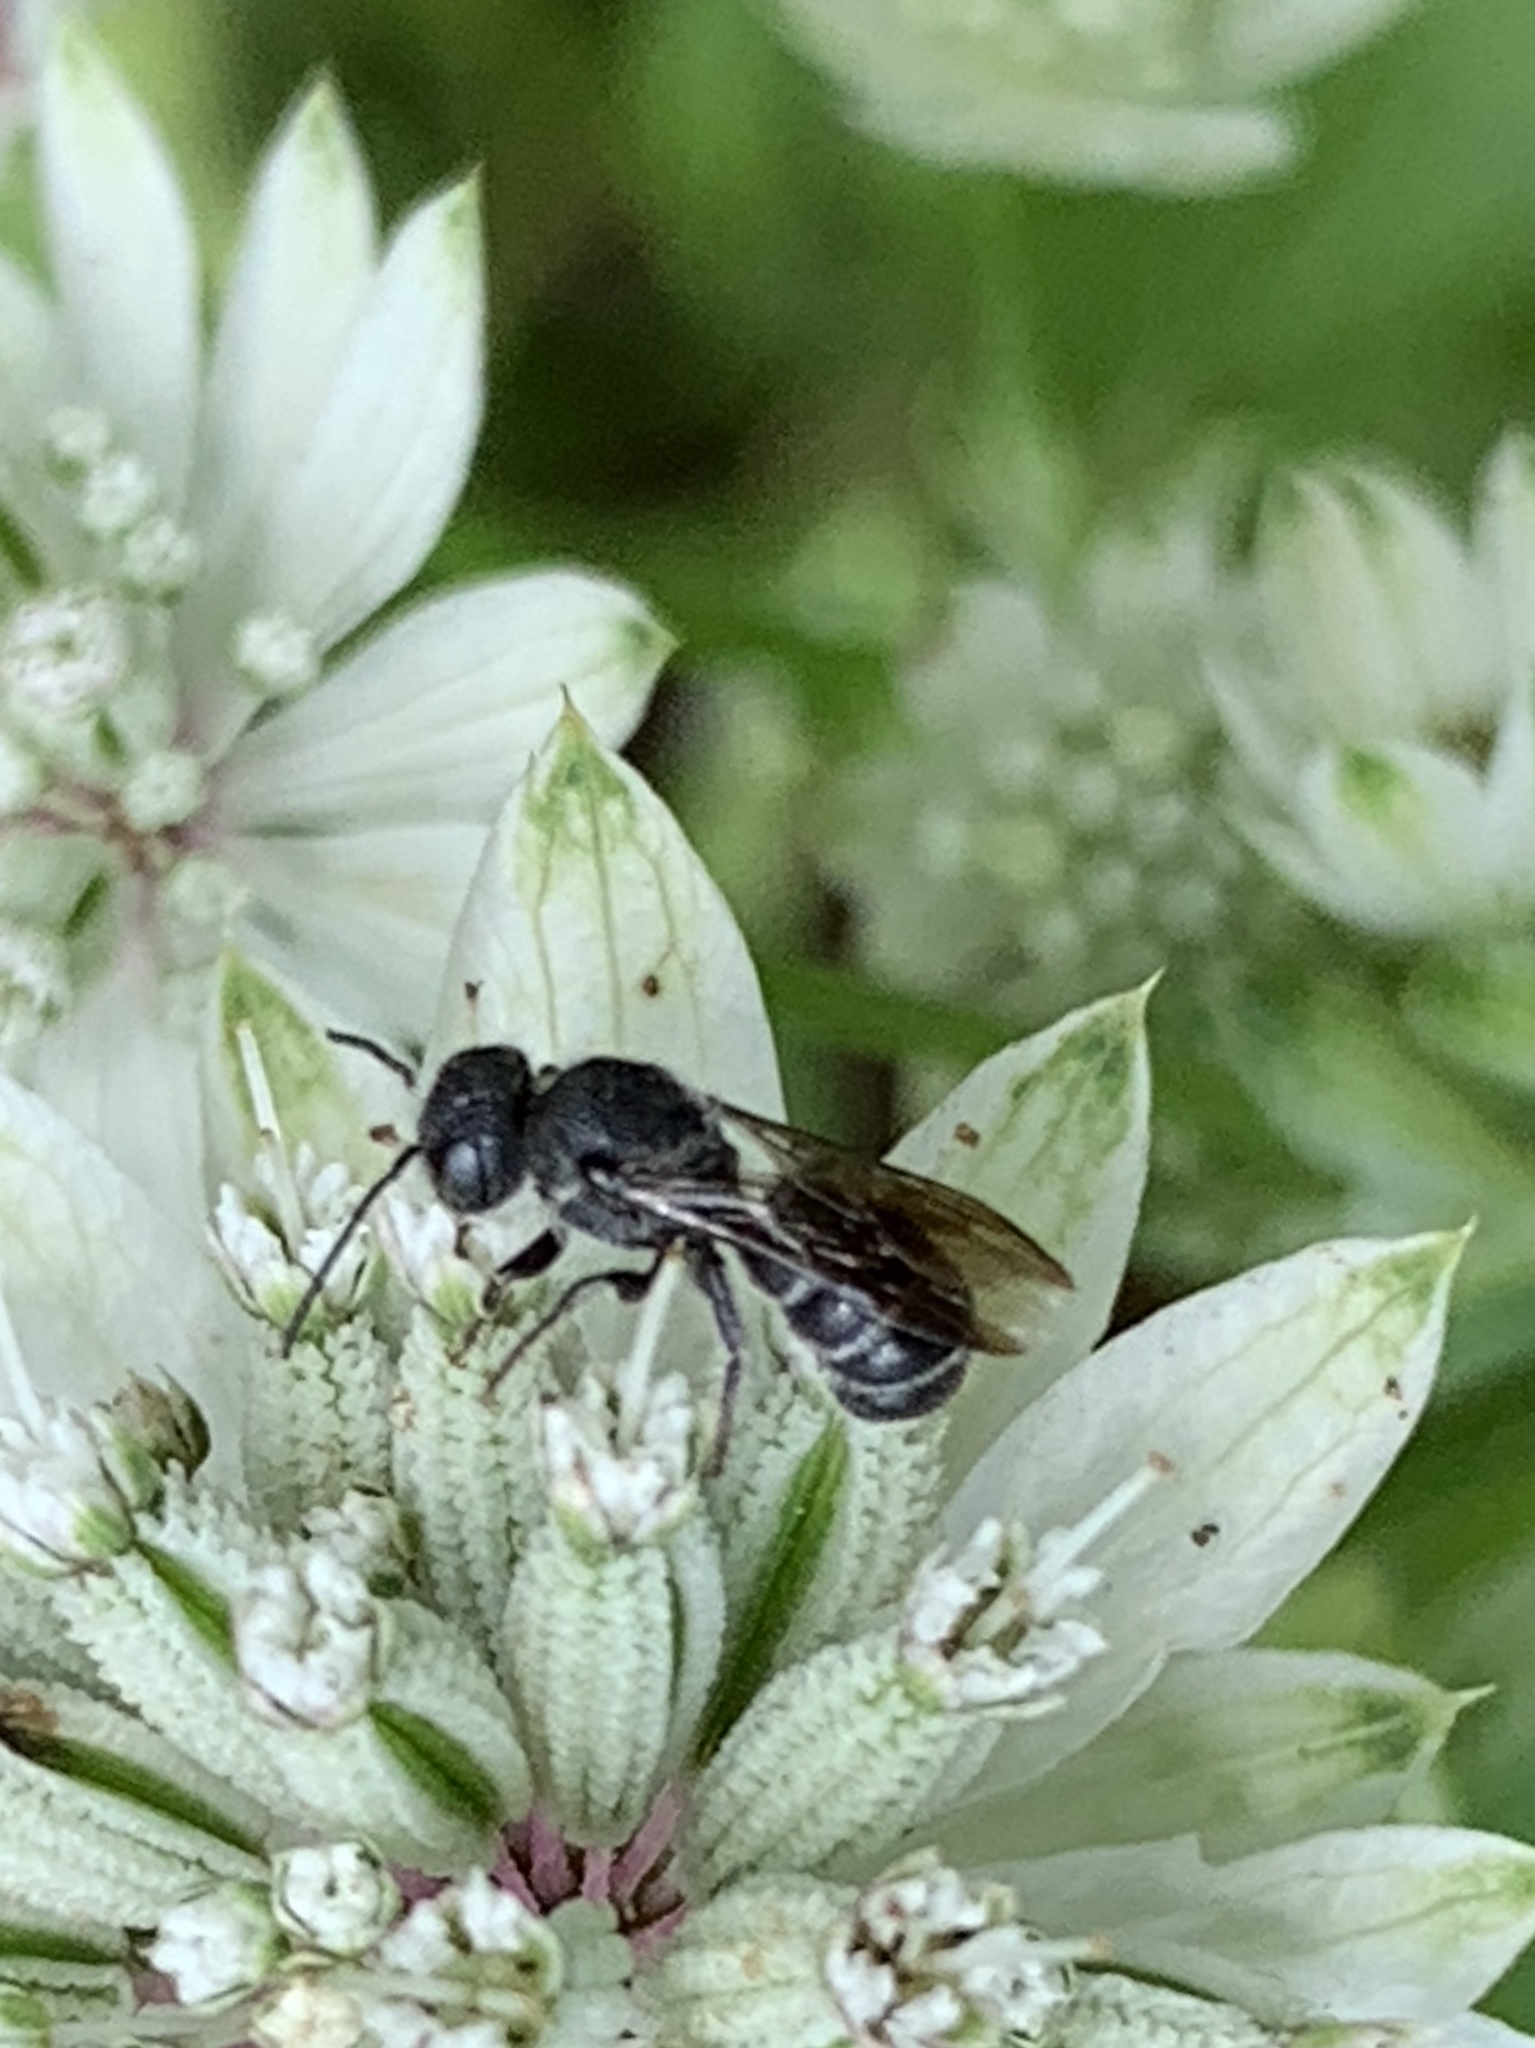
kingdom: Animalia
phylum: Arthropoda
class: Insecta
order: Hymenoptera
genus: Neotrypetes
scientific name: Neotrypetes
